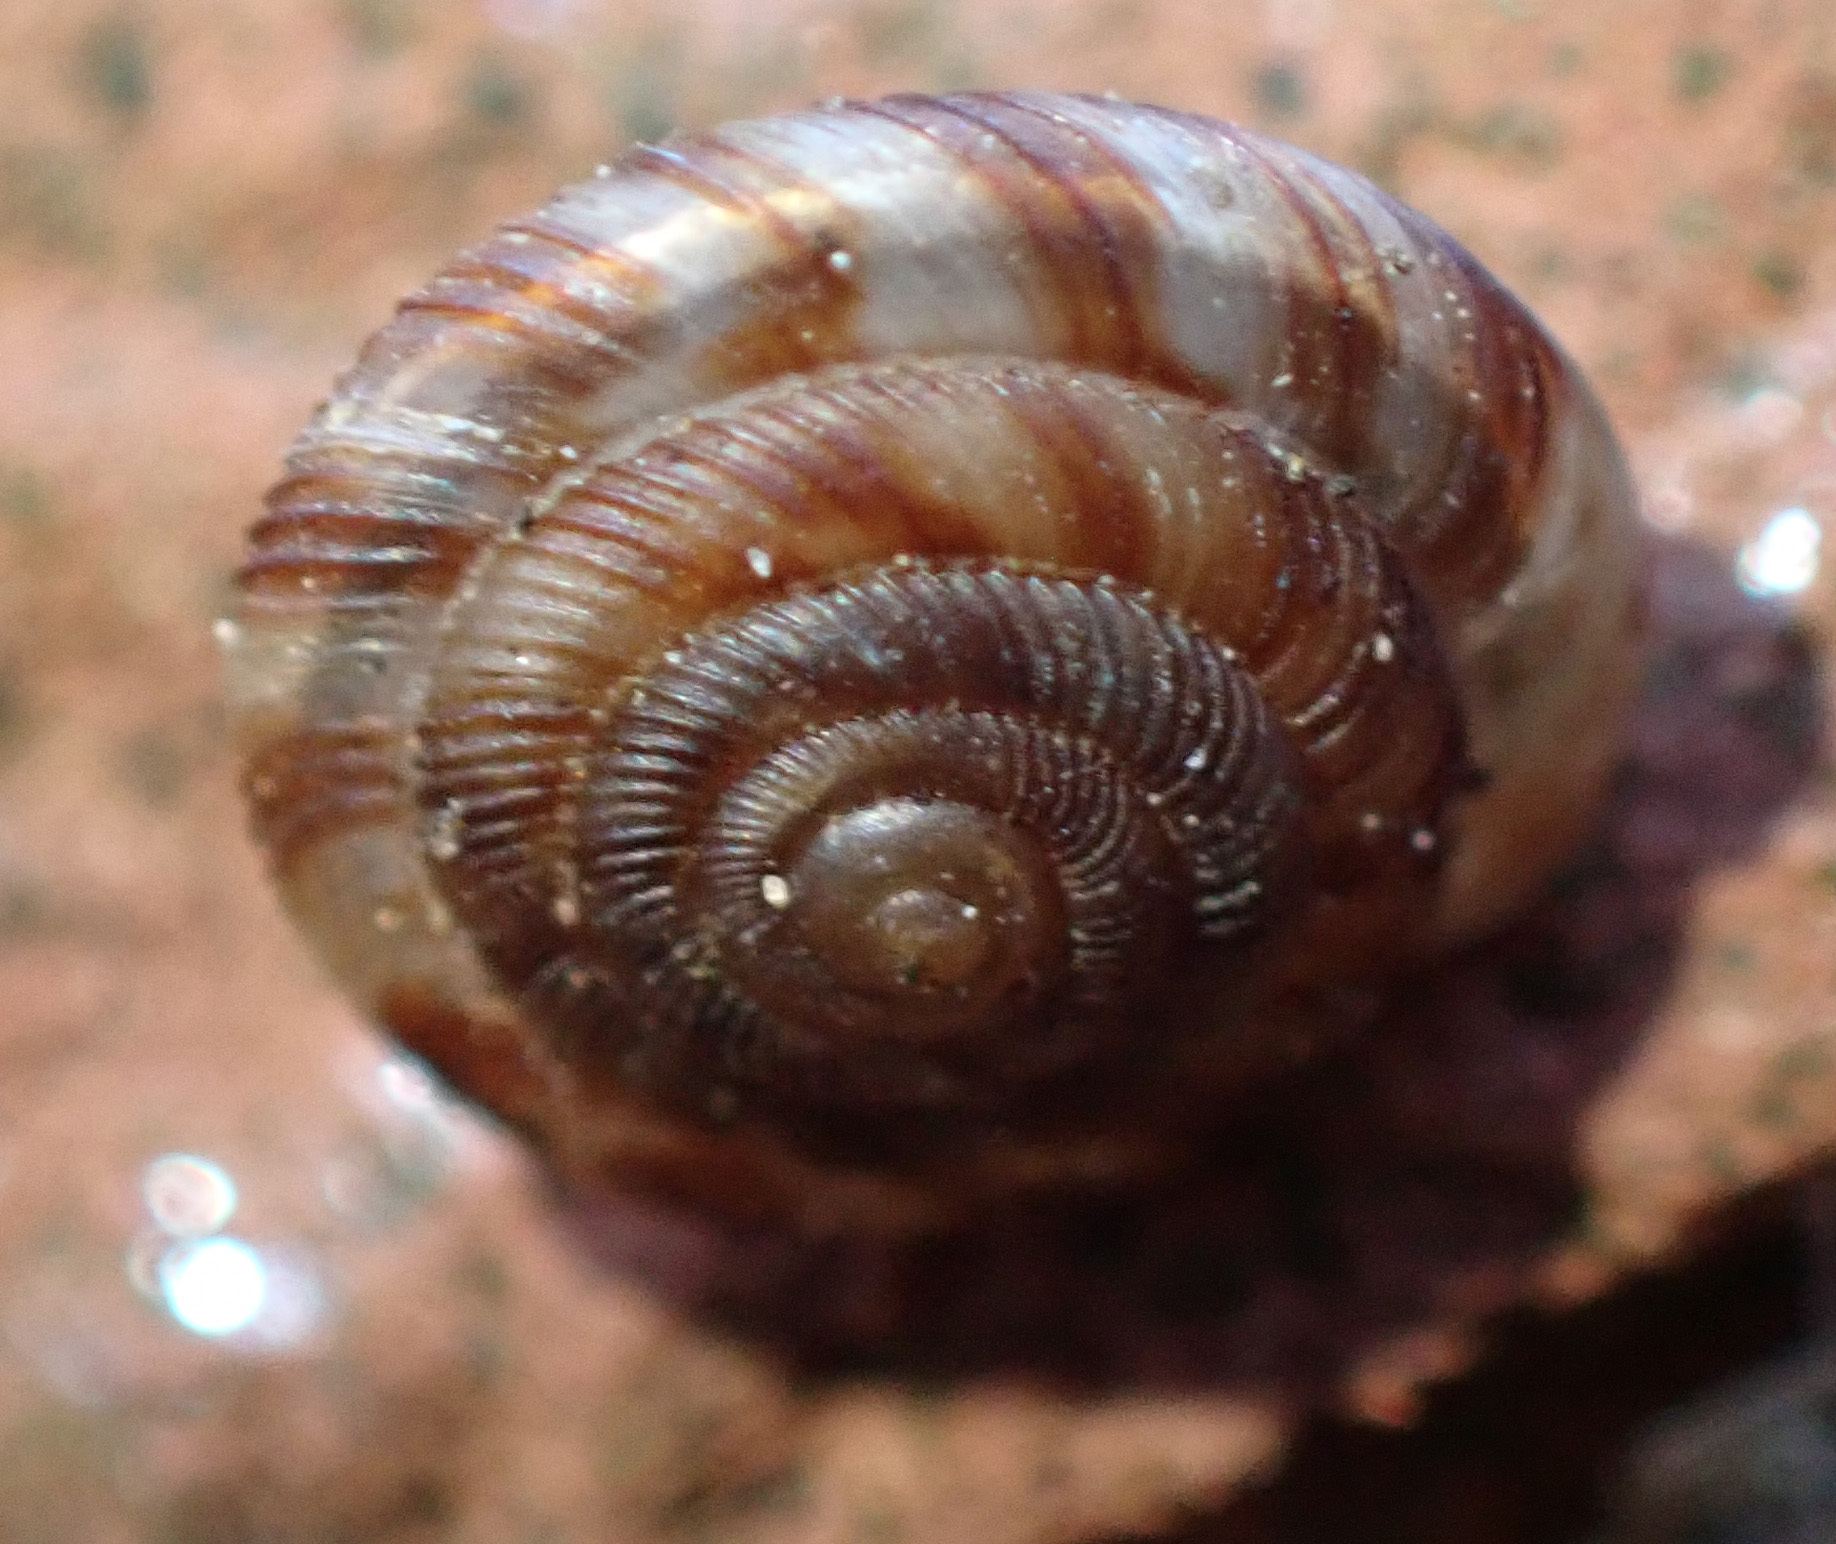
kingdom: Animalia
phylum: Mollusca
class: Gastropoda
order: Stylommatophora
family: Discidae
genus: Discus
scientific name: Discus rotundatus
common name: Rounded snail
